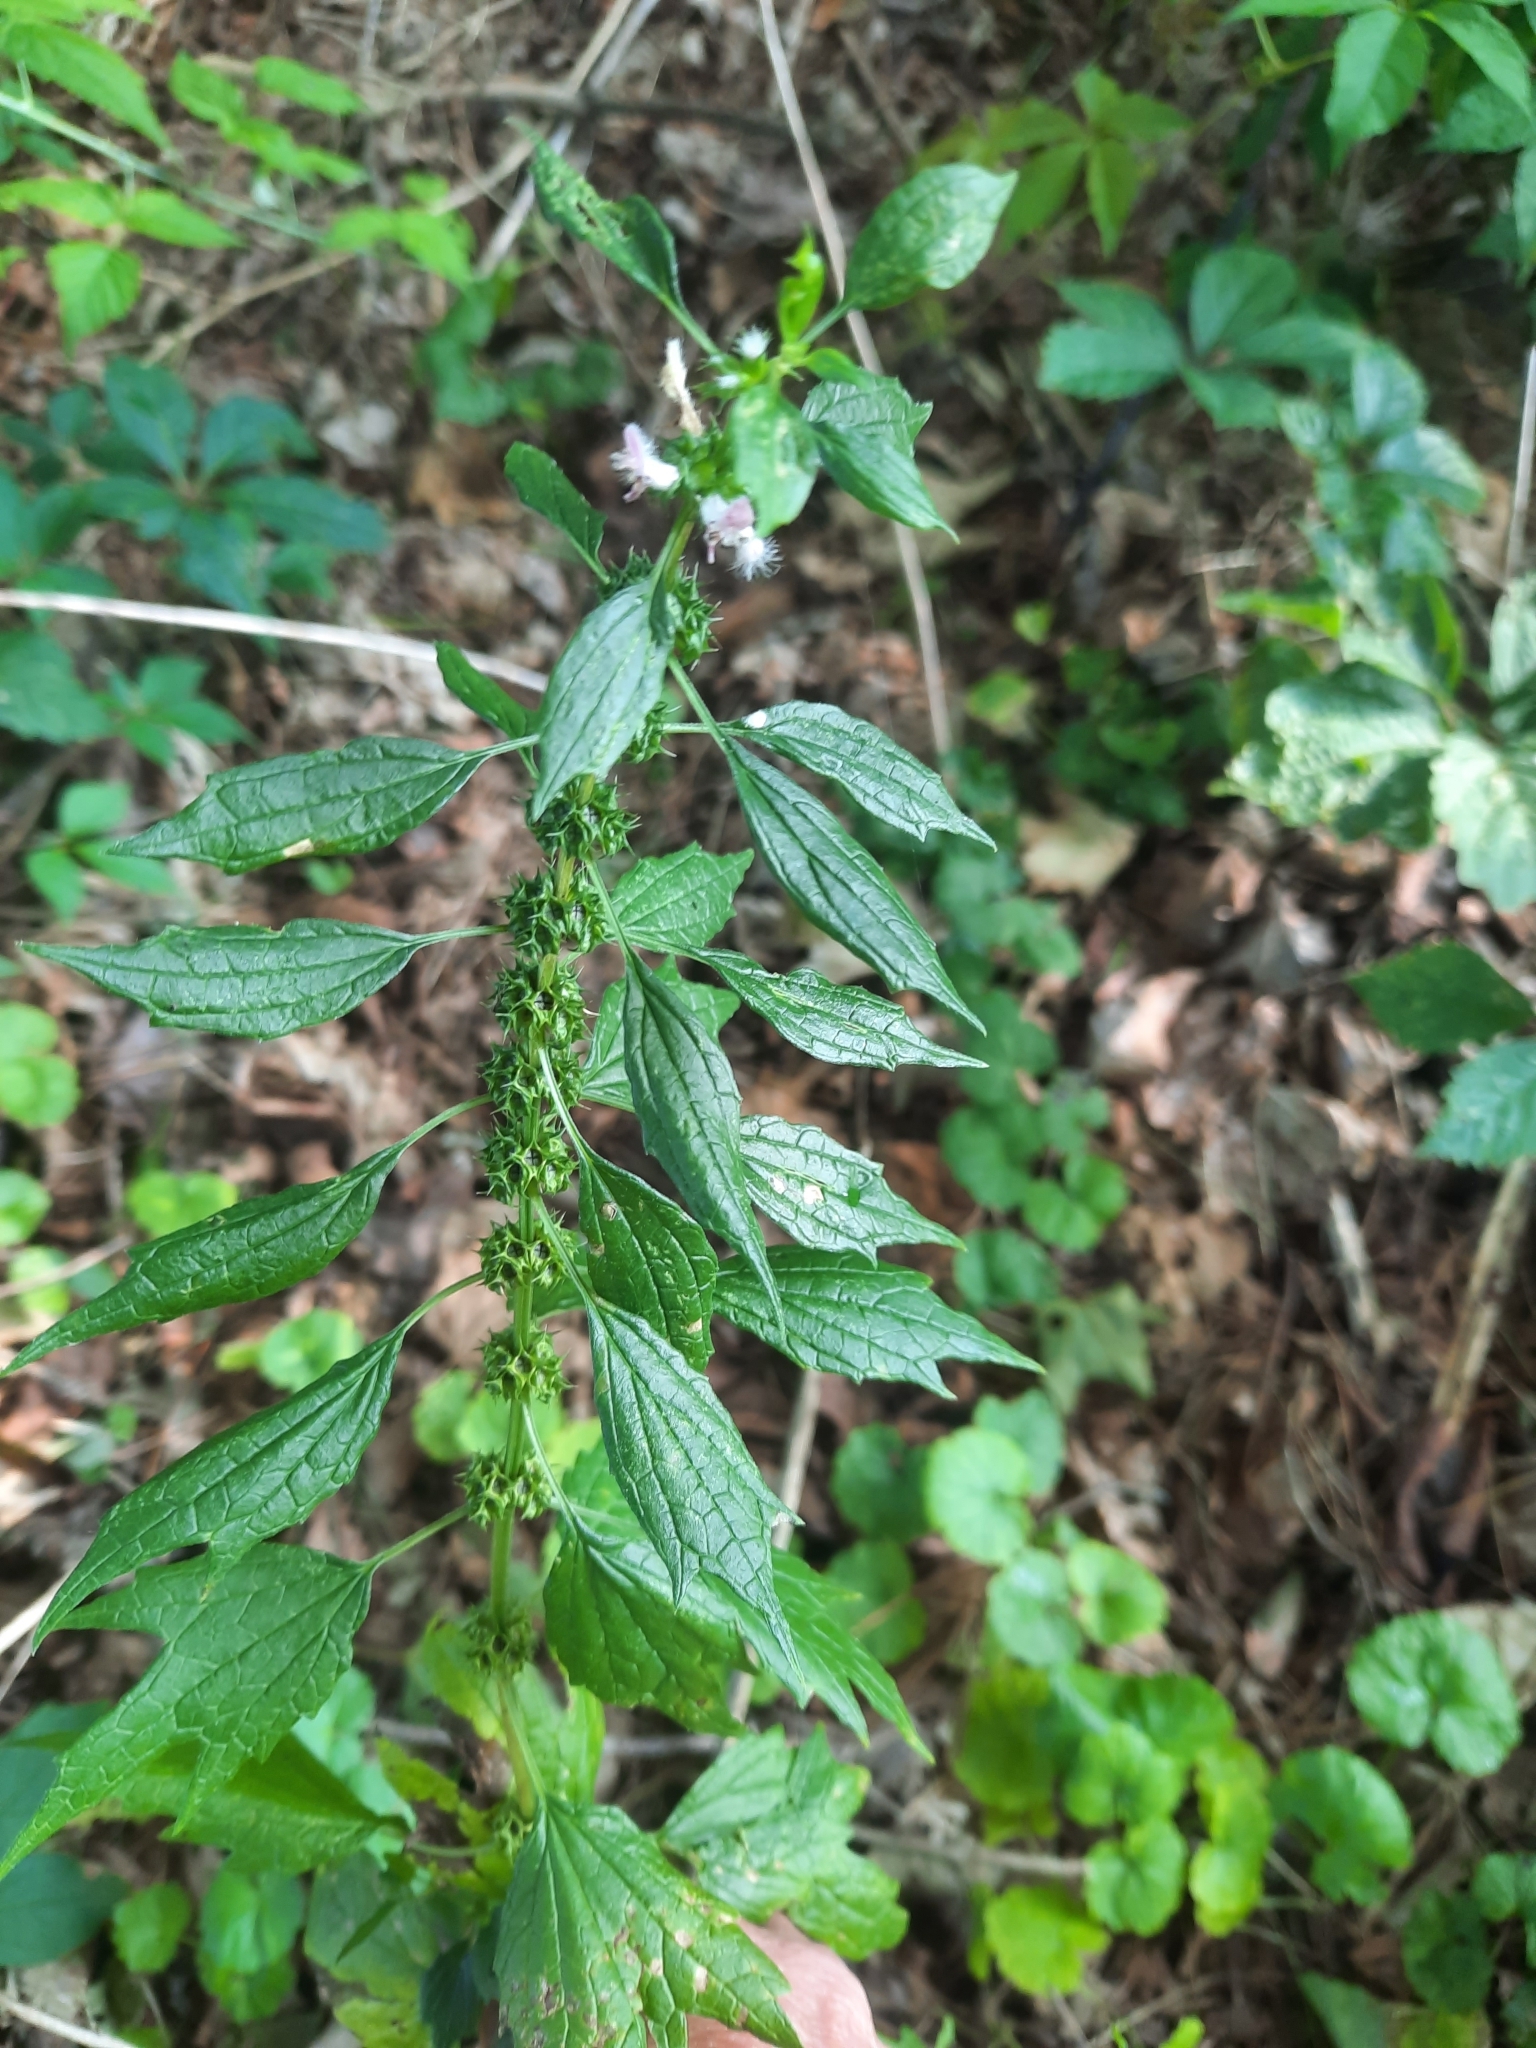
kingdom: Plantae
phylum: Tracheophyta
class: Magnoliopsida
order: Lamiales
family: Lamiaceae
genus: Leonurus
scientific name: Leonurus cardiaca
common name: Motherwort
